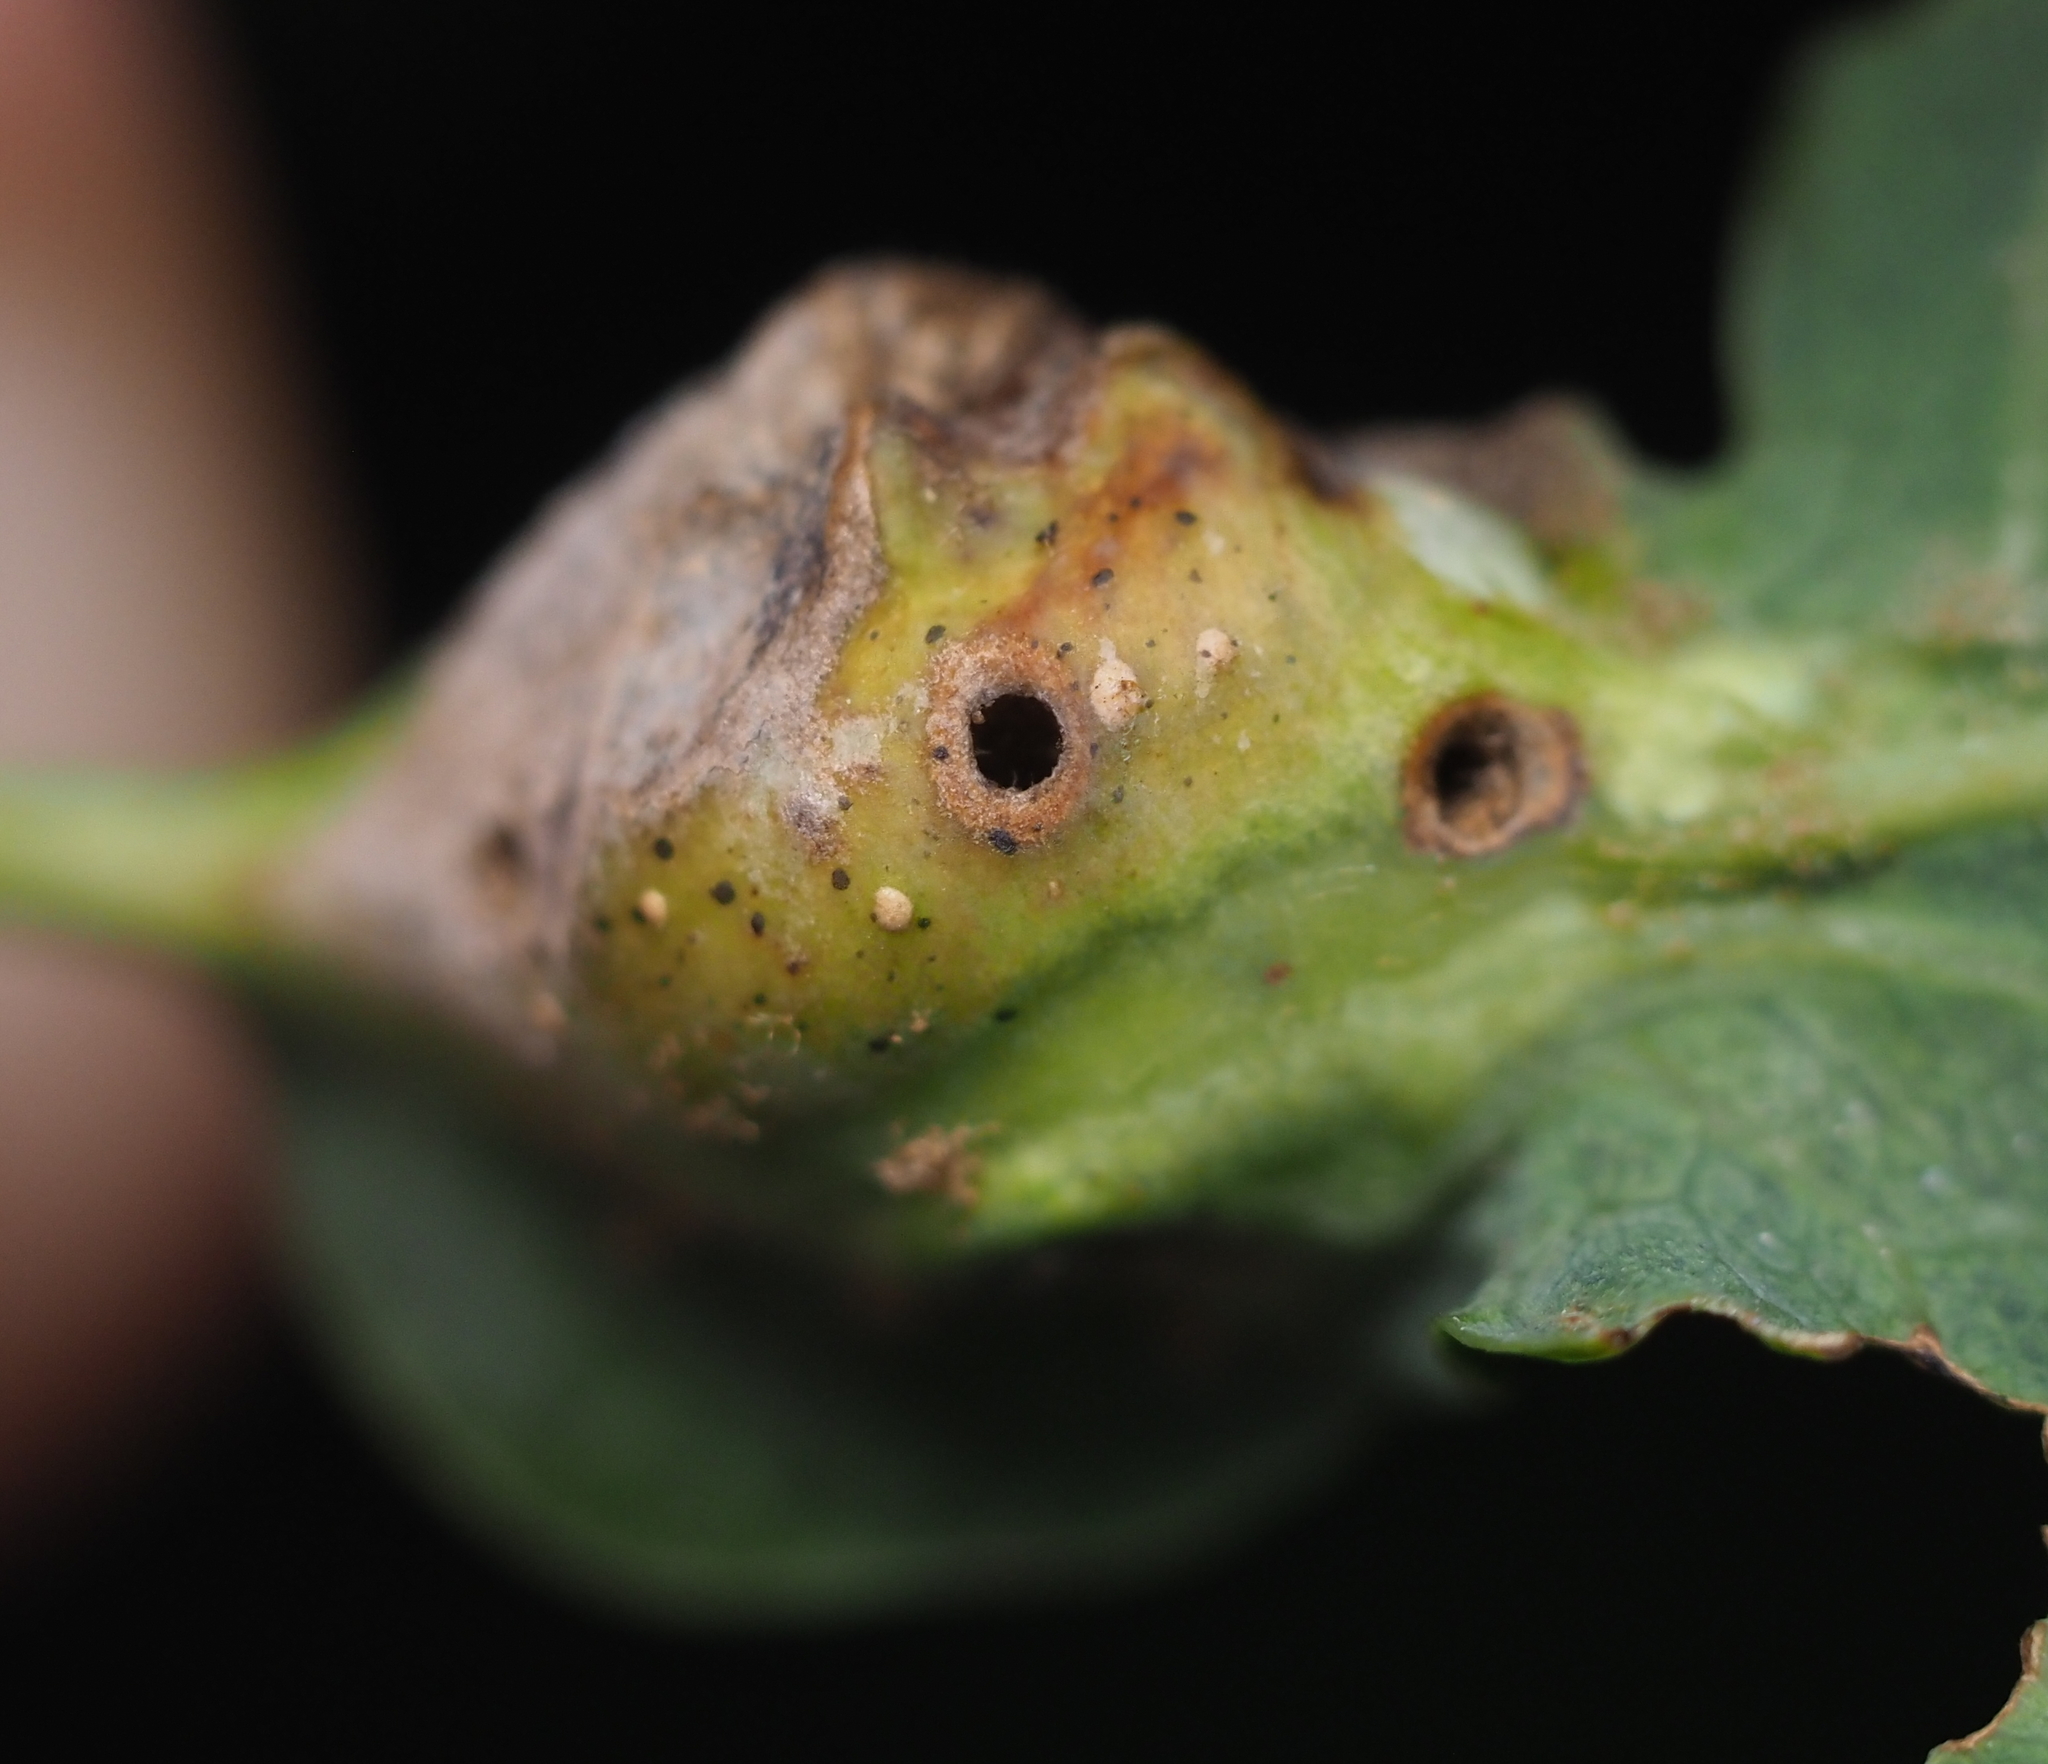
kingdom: Animalia
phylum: Arthropoda
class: Insecta
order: Hymenoptera
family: Cynipidae
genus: Andricus
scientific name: Andricus
